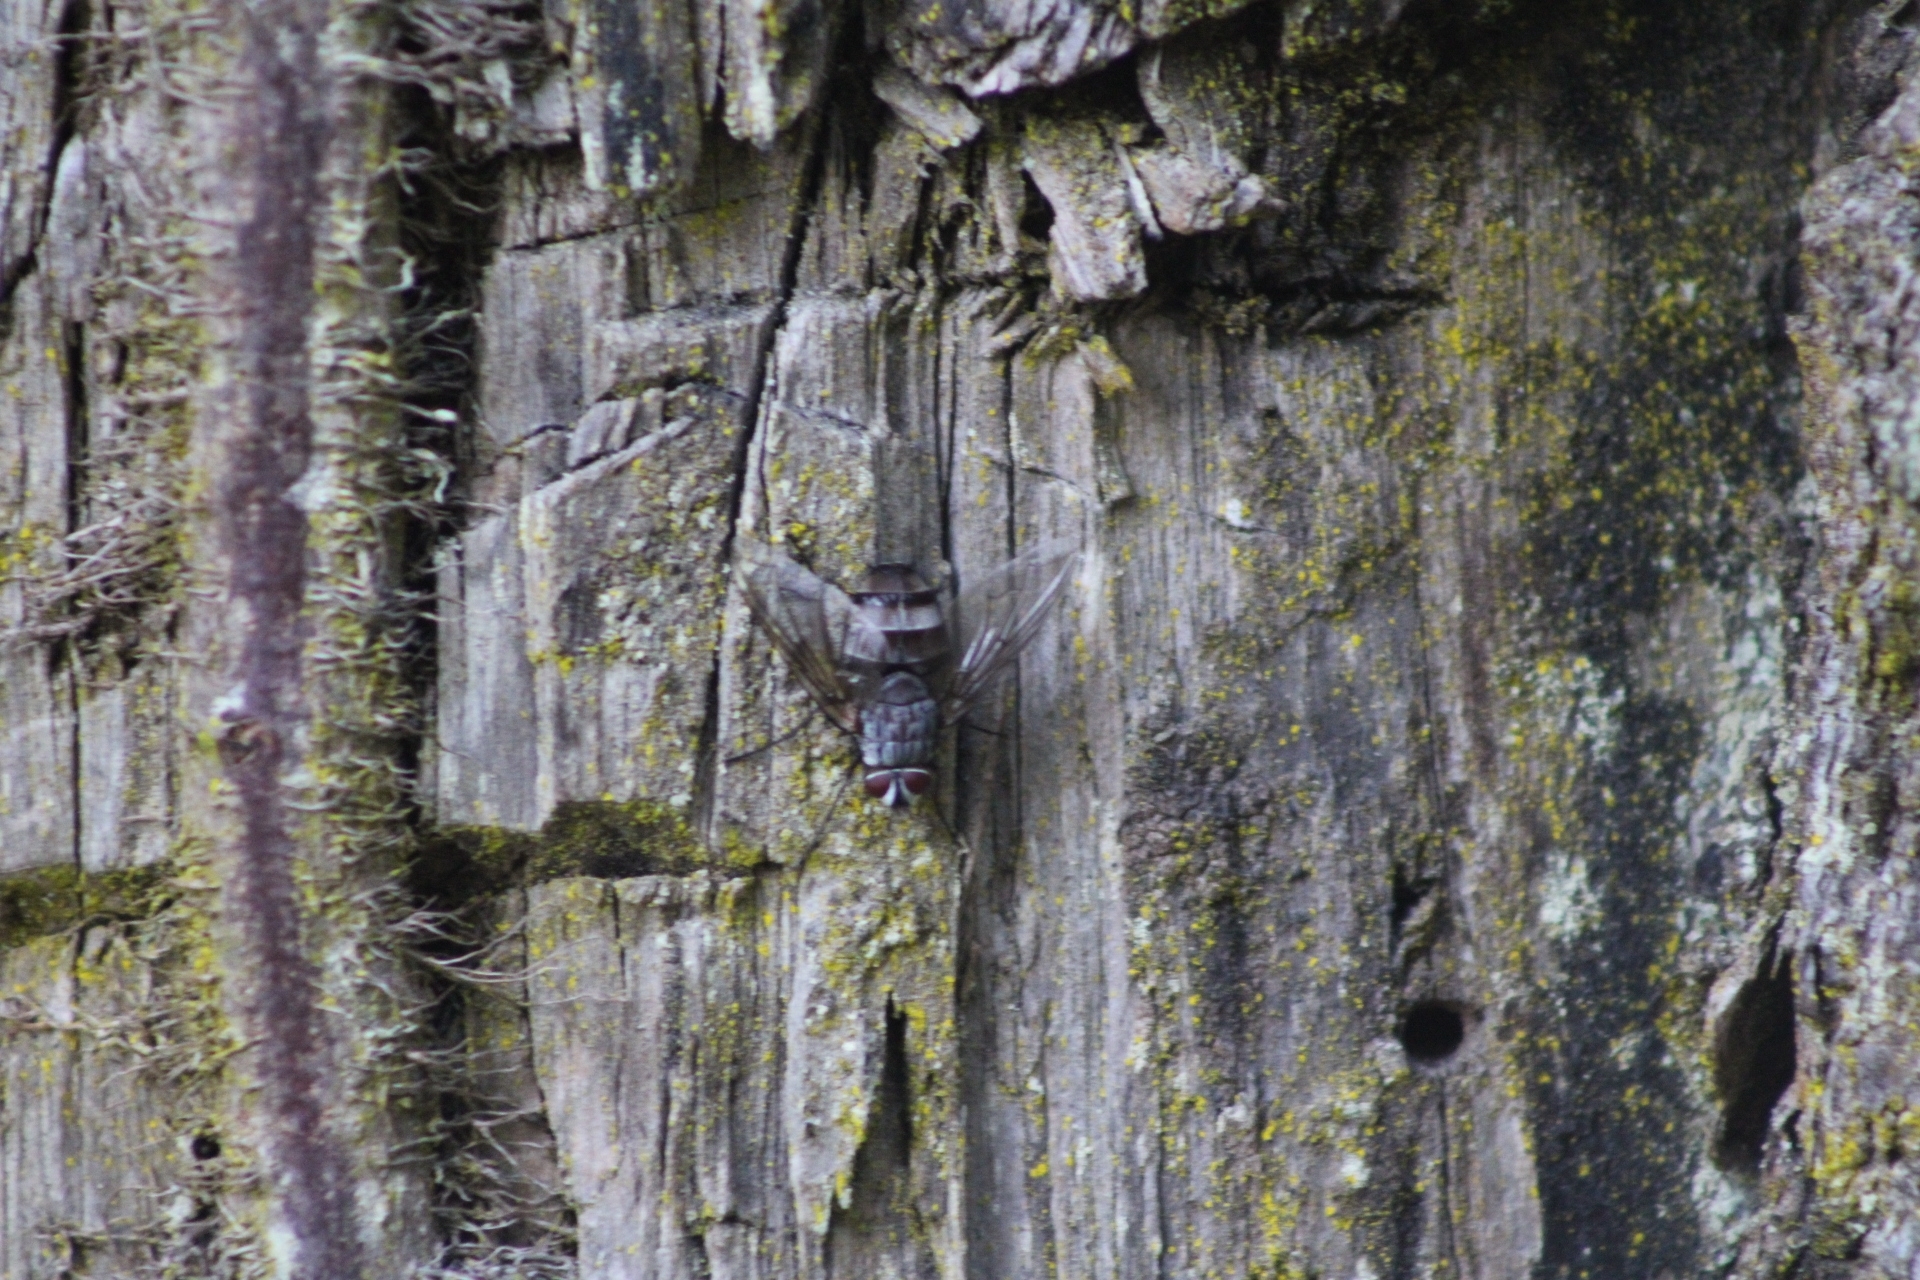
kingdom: Animalia
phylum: Arthropoda
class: Insecta
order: Diptera
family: Tachinidae
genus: Billaea
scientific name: Billaea rutilans
